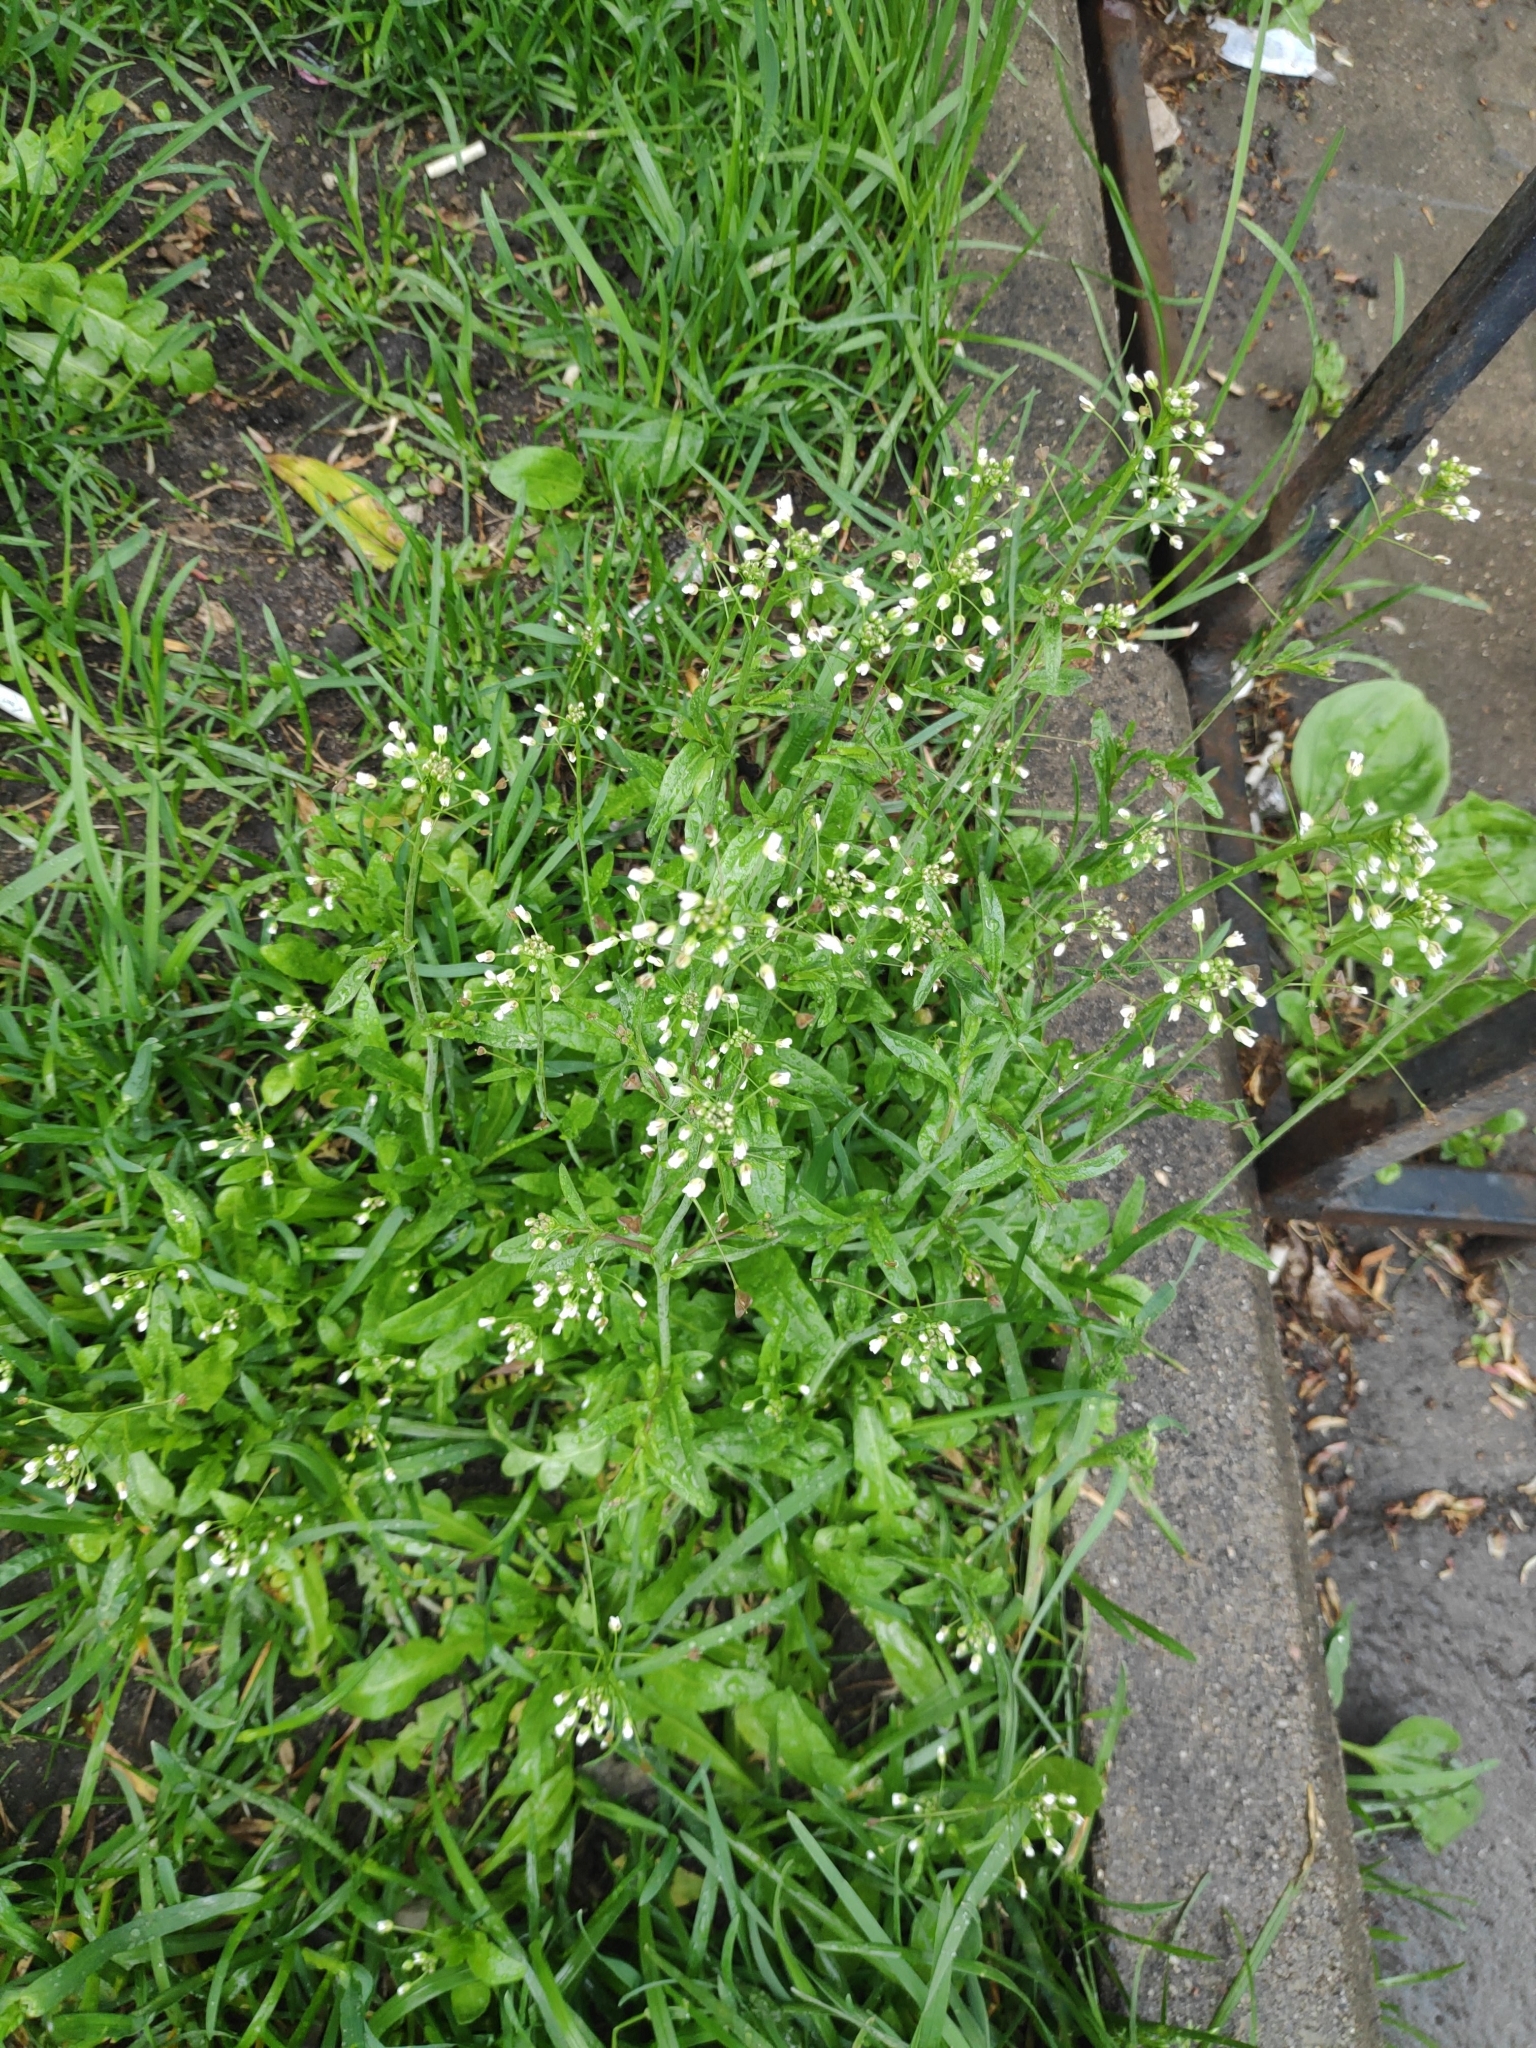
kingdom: Plantae
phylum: Tracheophyta
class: Magnoliopsida
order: Brassicales
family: Brassicaceae
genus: Capsella
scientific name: Capsella bursa-pastoris
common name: Shepherd's purse
